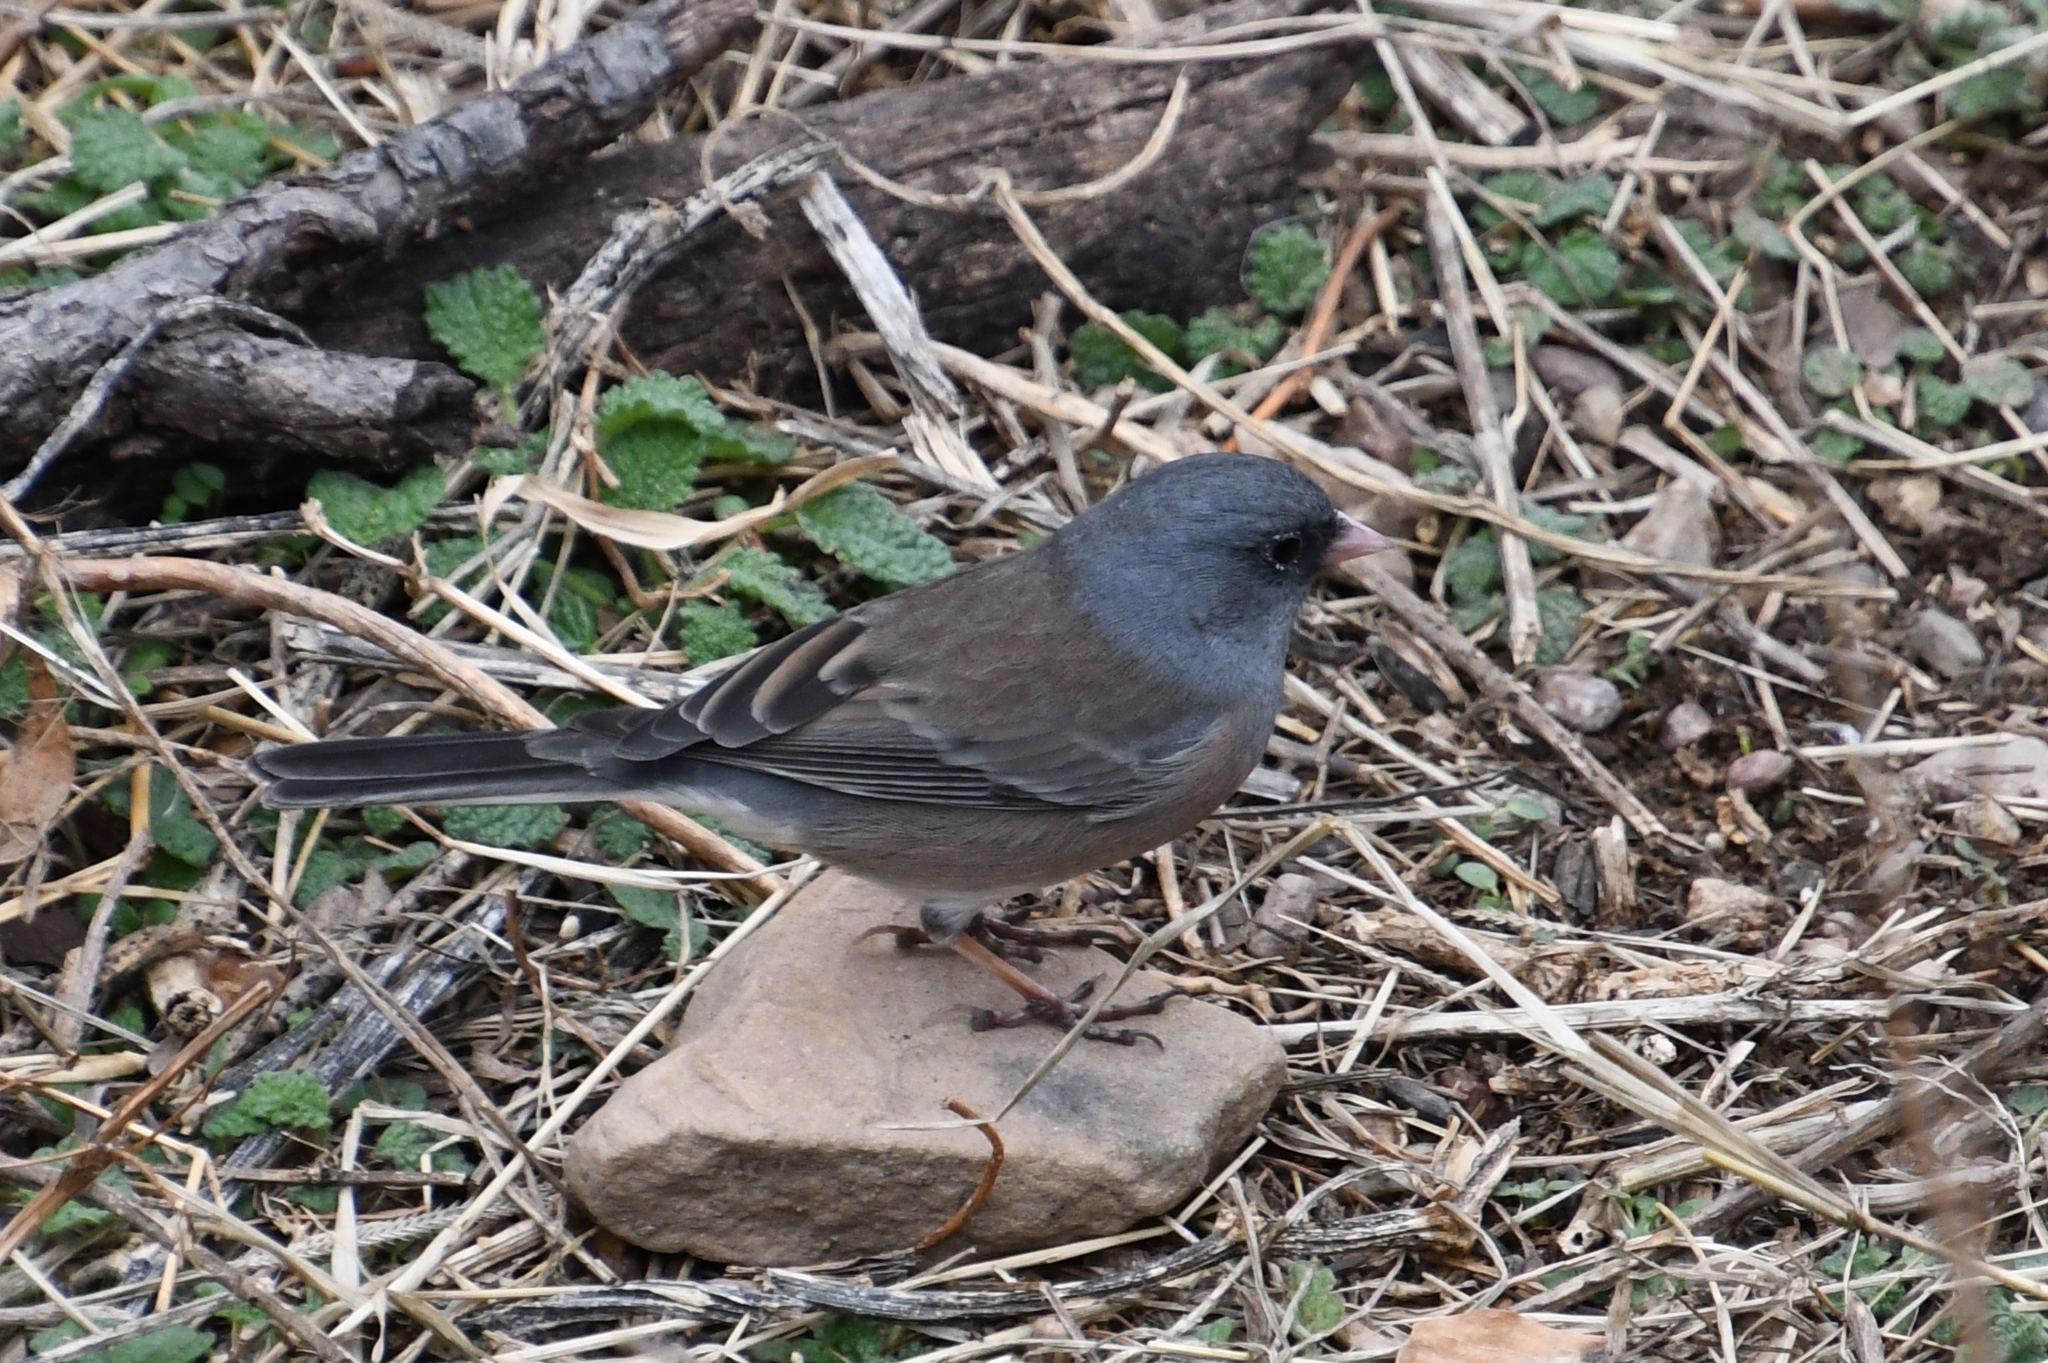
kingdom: Animalia
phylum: Chordata
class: Aves
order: Passeriformes
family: Passerellidae
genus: Junco
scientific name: Junco hyemalis
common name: Dark-eyed junco
